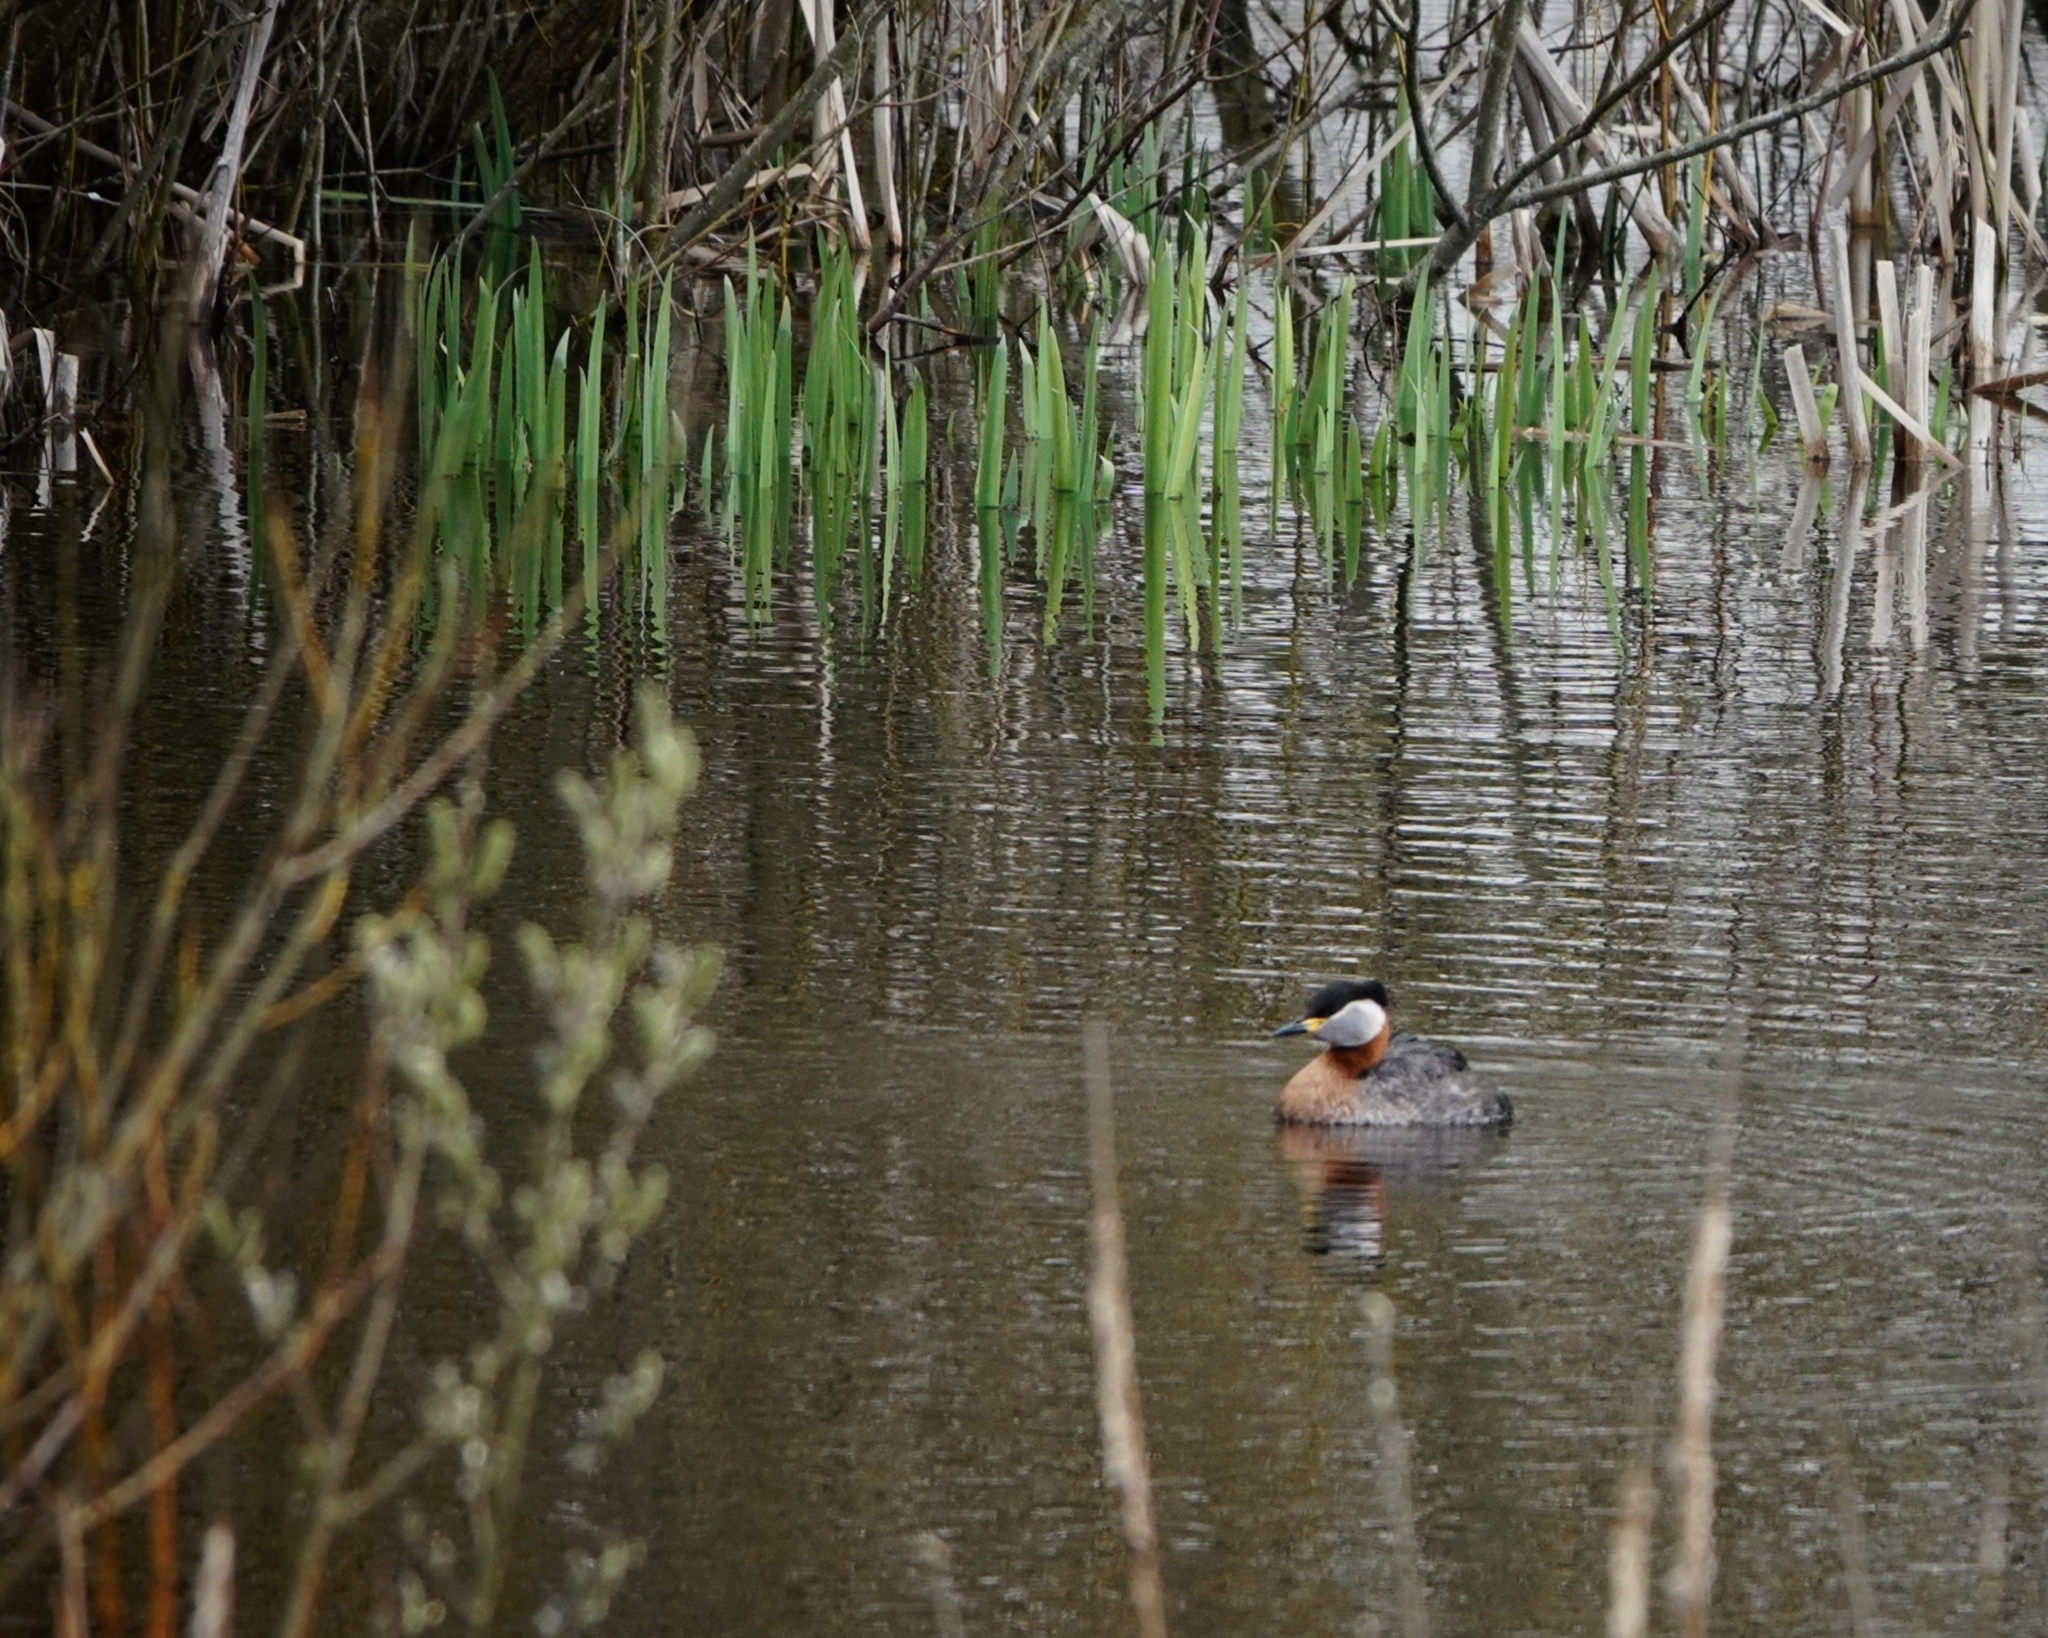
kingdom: Animalia
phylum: Chordata
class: Aves
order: Podicipediformes
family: Podicipedidae
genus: Podiceps
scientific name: Podiceps grisegena
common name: Red-necked grebe
